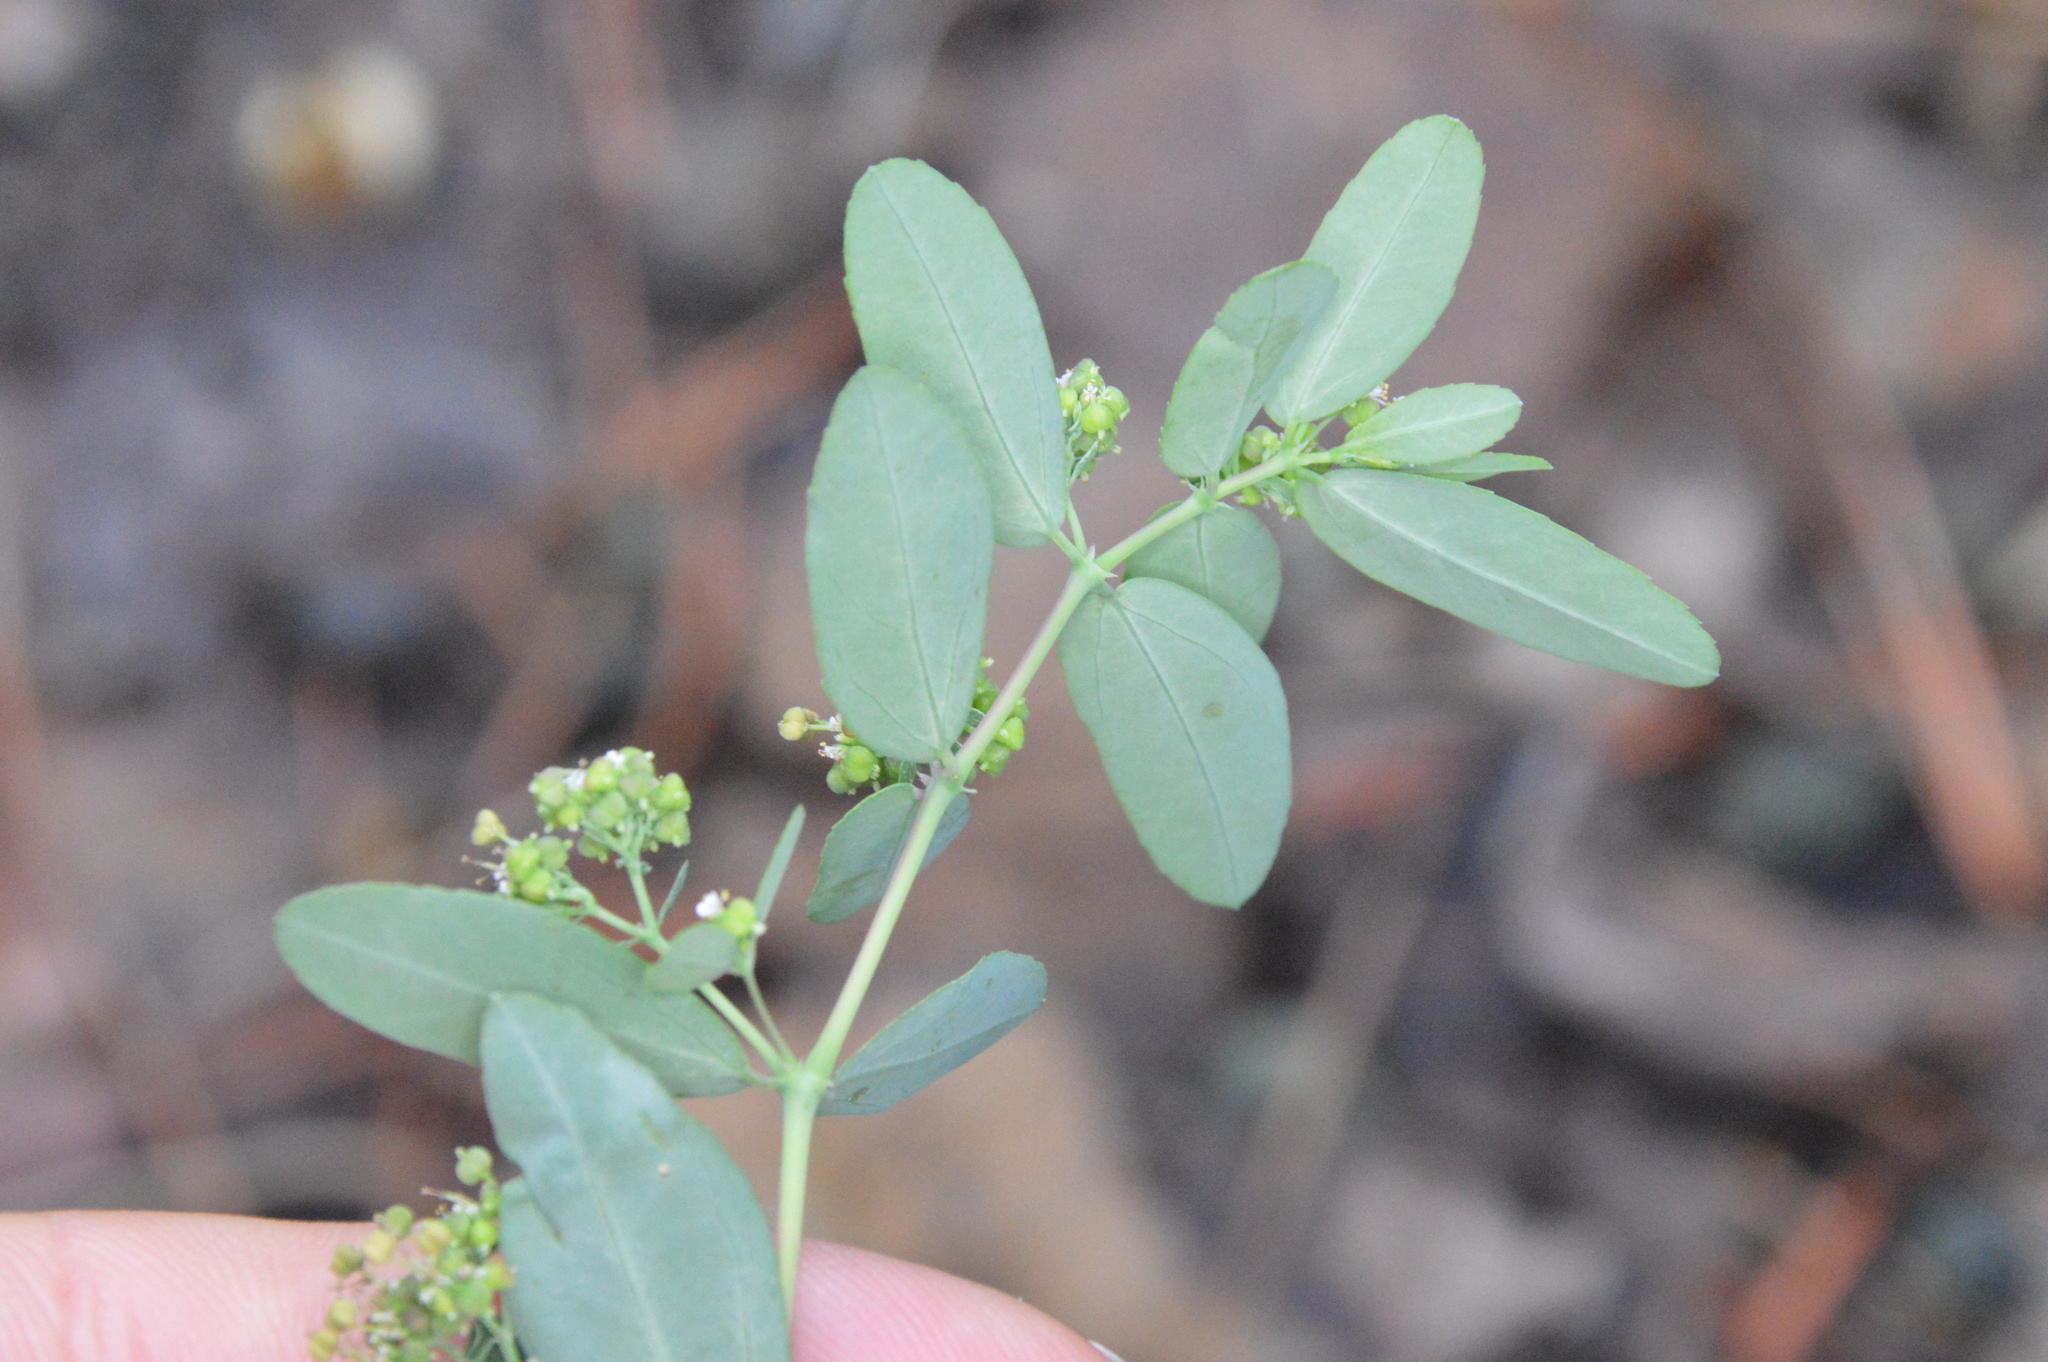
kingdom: Plantae
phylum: Tracheophyta
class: Magnoliopsida
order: Malpighiales
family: Euphorbiaceae
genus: Euphorbia
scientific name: Euphorbia hypericifolia
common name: Graceful sandmat
